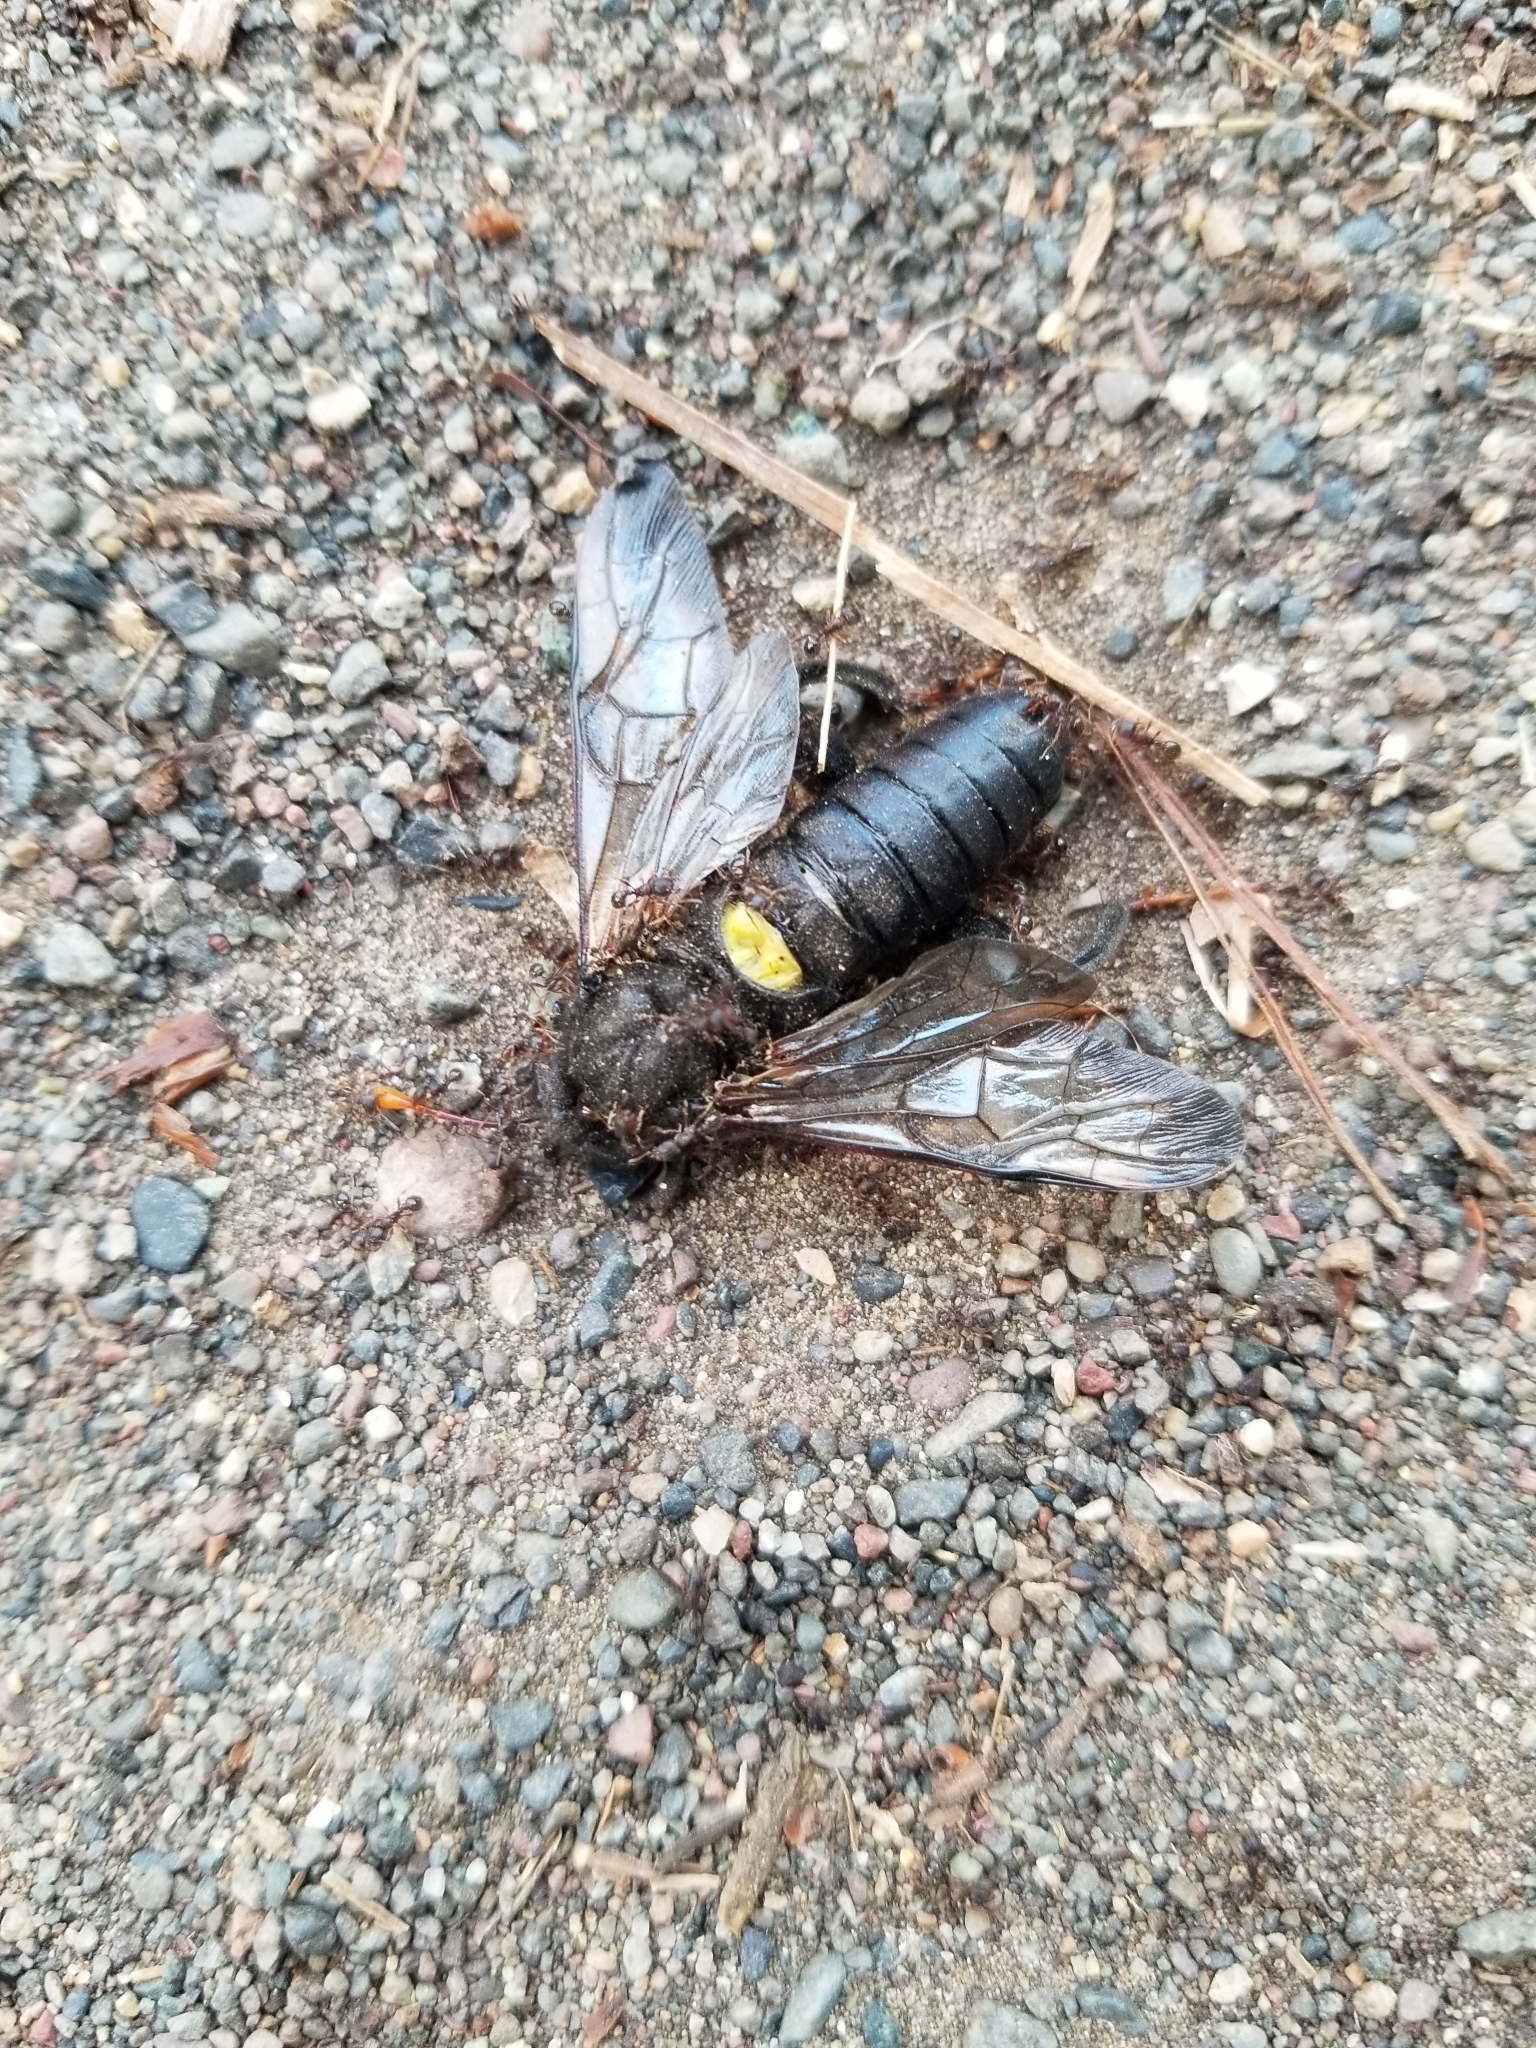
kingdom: Animalia
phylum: Arthropoda
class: Insecta
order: Hymenoptera
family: Cimbicidae
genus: Cimbex
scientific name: Cimbex americana
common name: Elm sawfly
